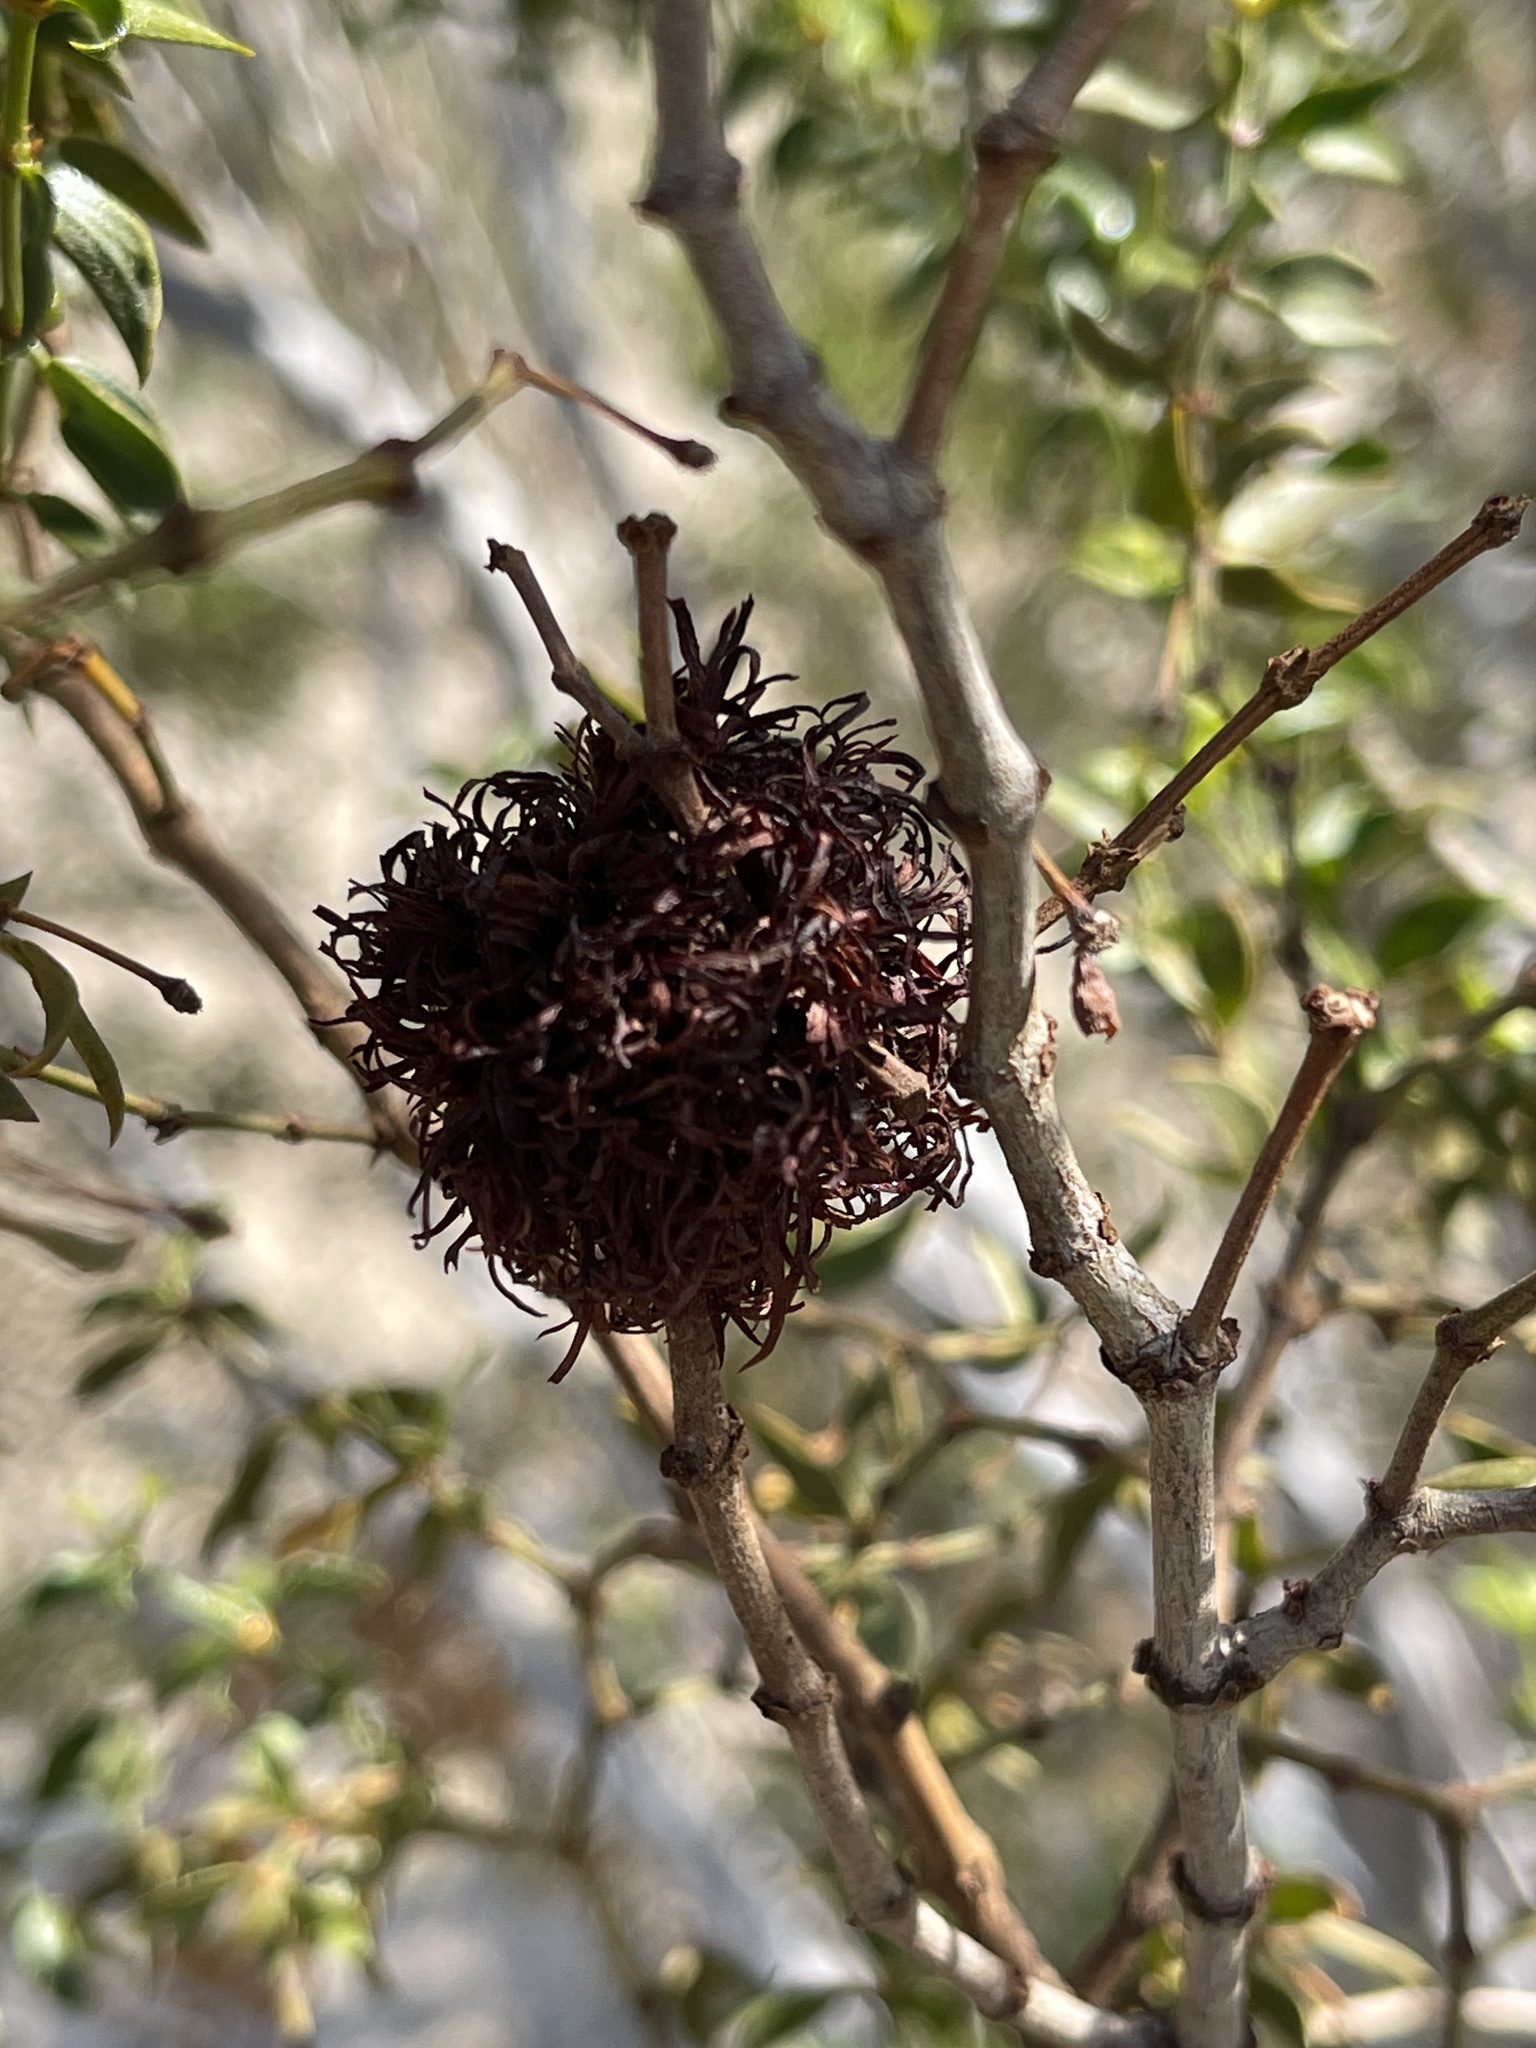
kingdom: Animalia
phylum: Arthropoda
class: Insecta
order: Diptera
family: Cecidomyiidae
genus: Asphondylia
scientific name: Asphondylia auripila
